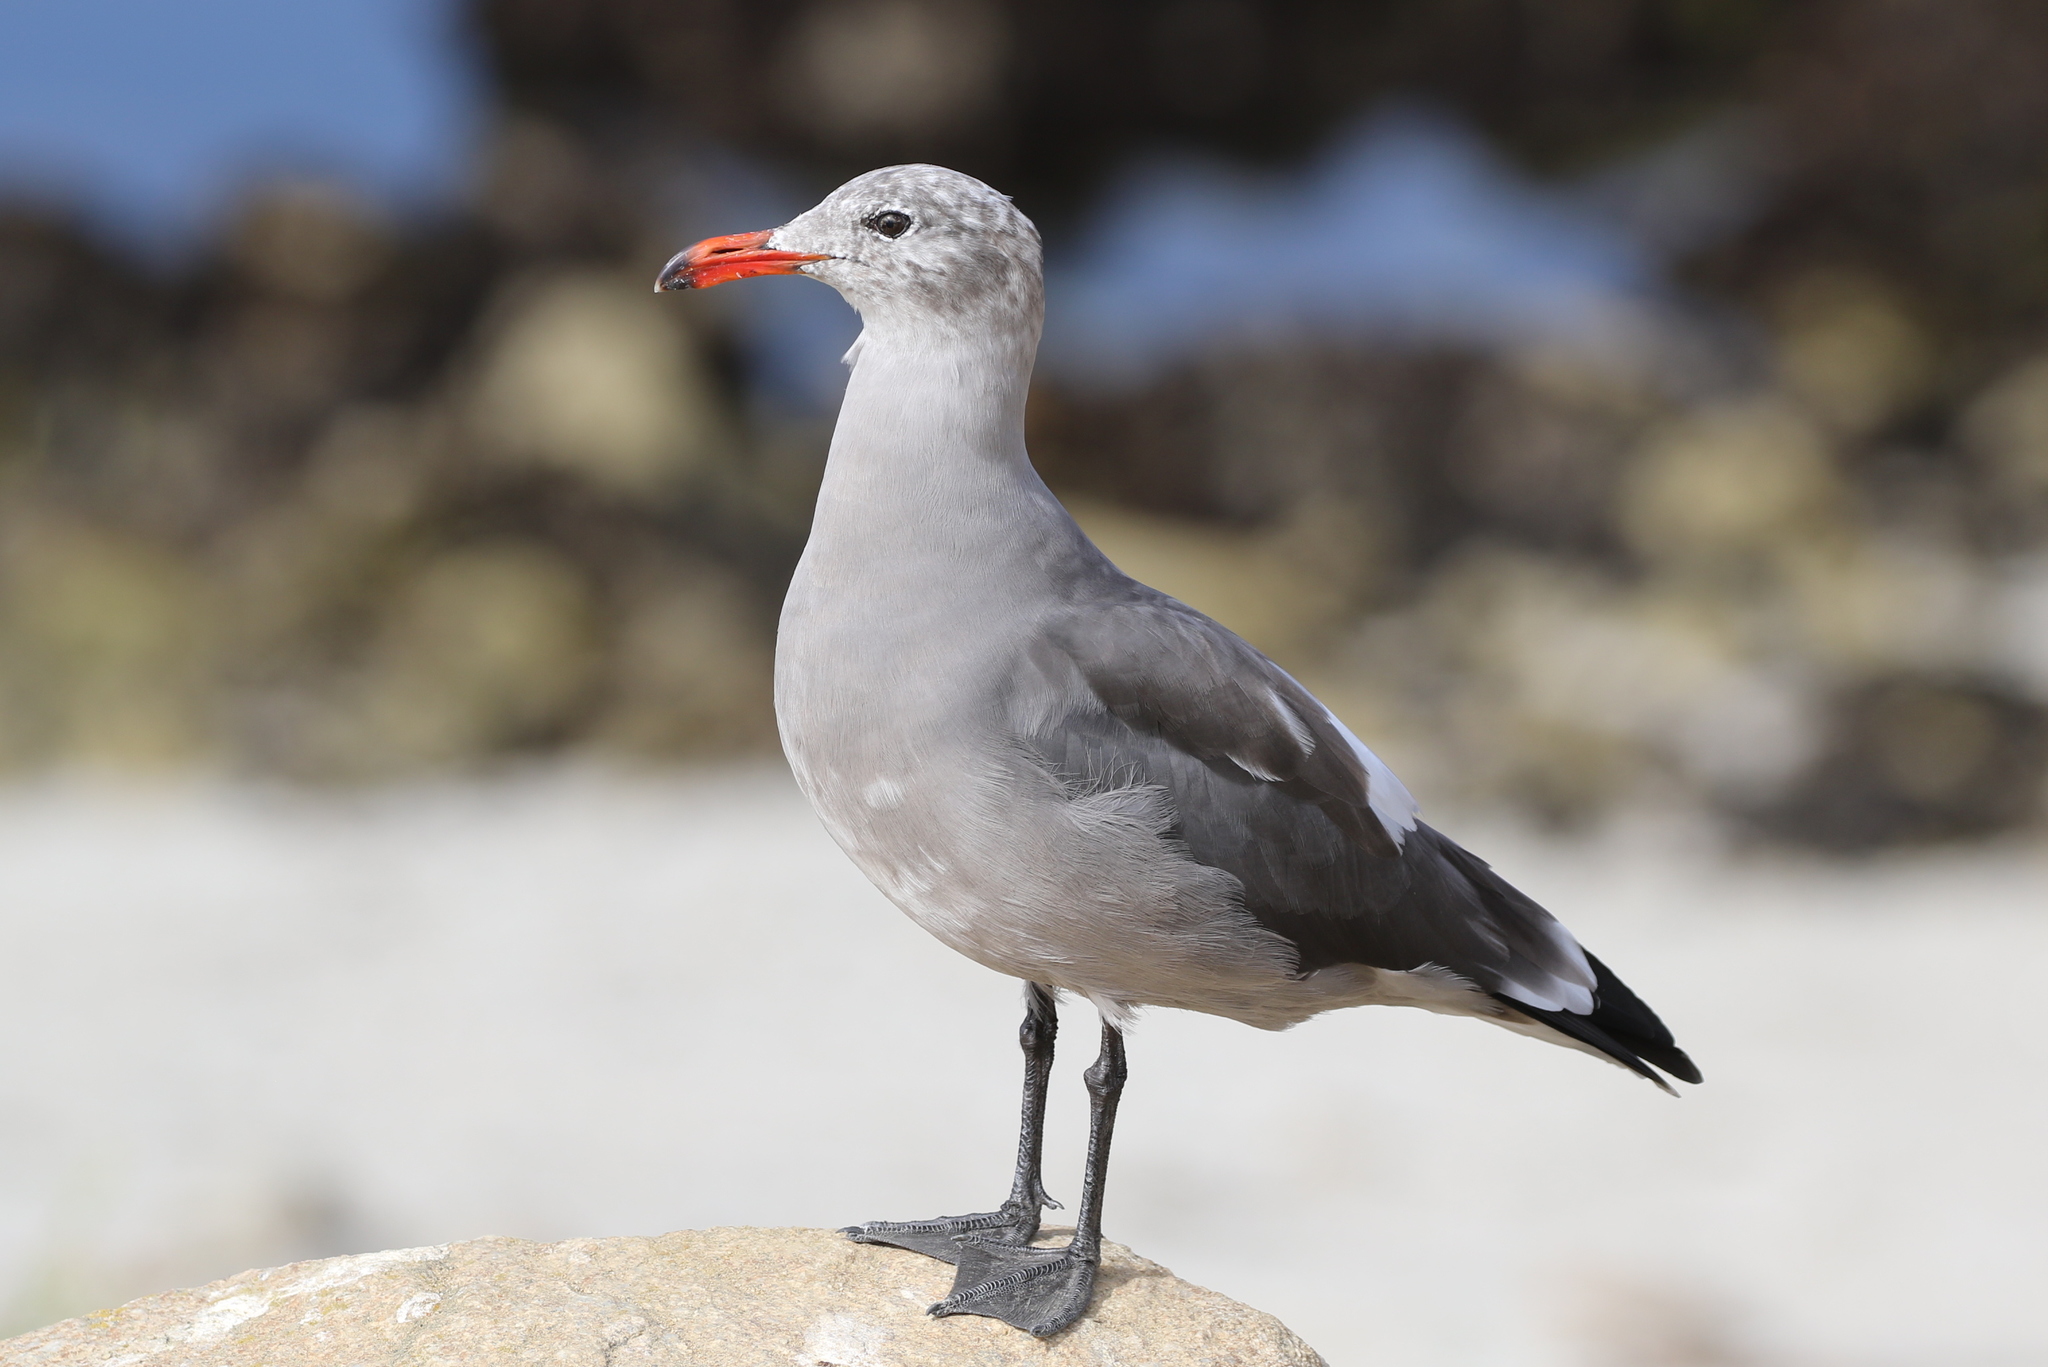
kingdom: Animalia
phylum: Chordata
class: Aves
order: Charadriiformes
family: Laridae
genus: Larus
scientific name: Larus heermanni
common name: Heermann's gull
